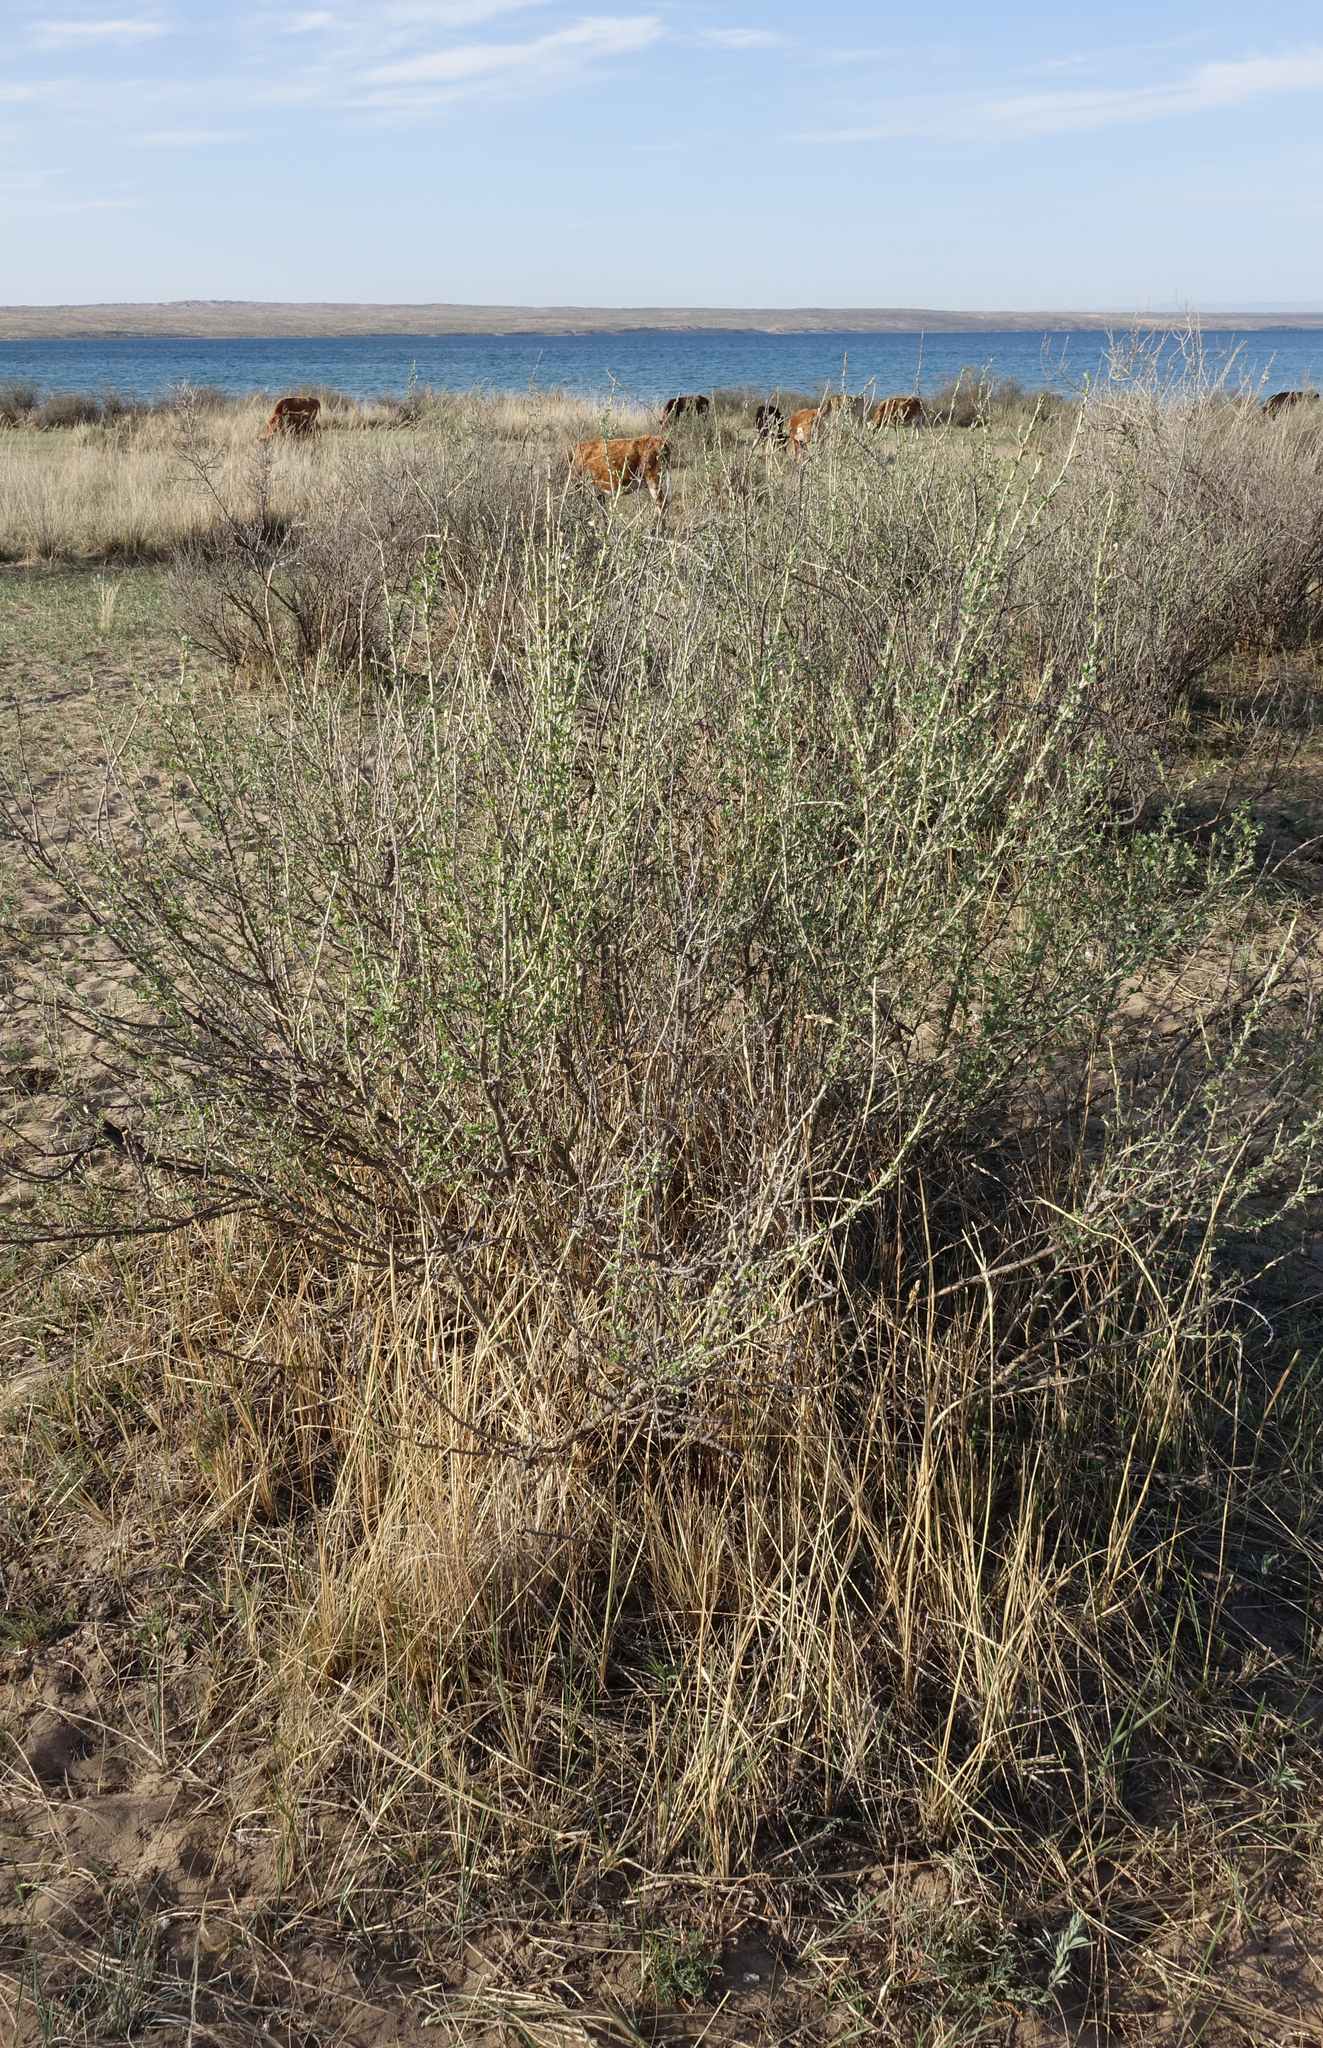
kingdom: Plantae
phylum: Tracheophyta
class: Magnoliopsida
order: Fabales
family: Fabaceae
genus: Caragana
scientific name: Caragana bungei
